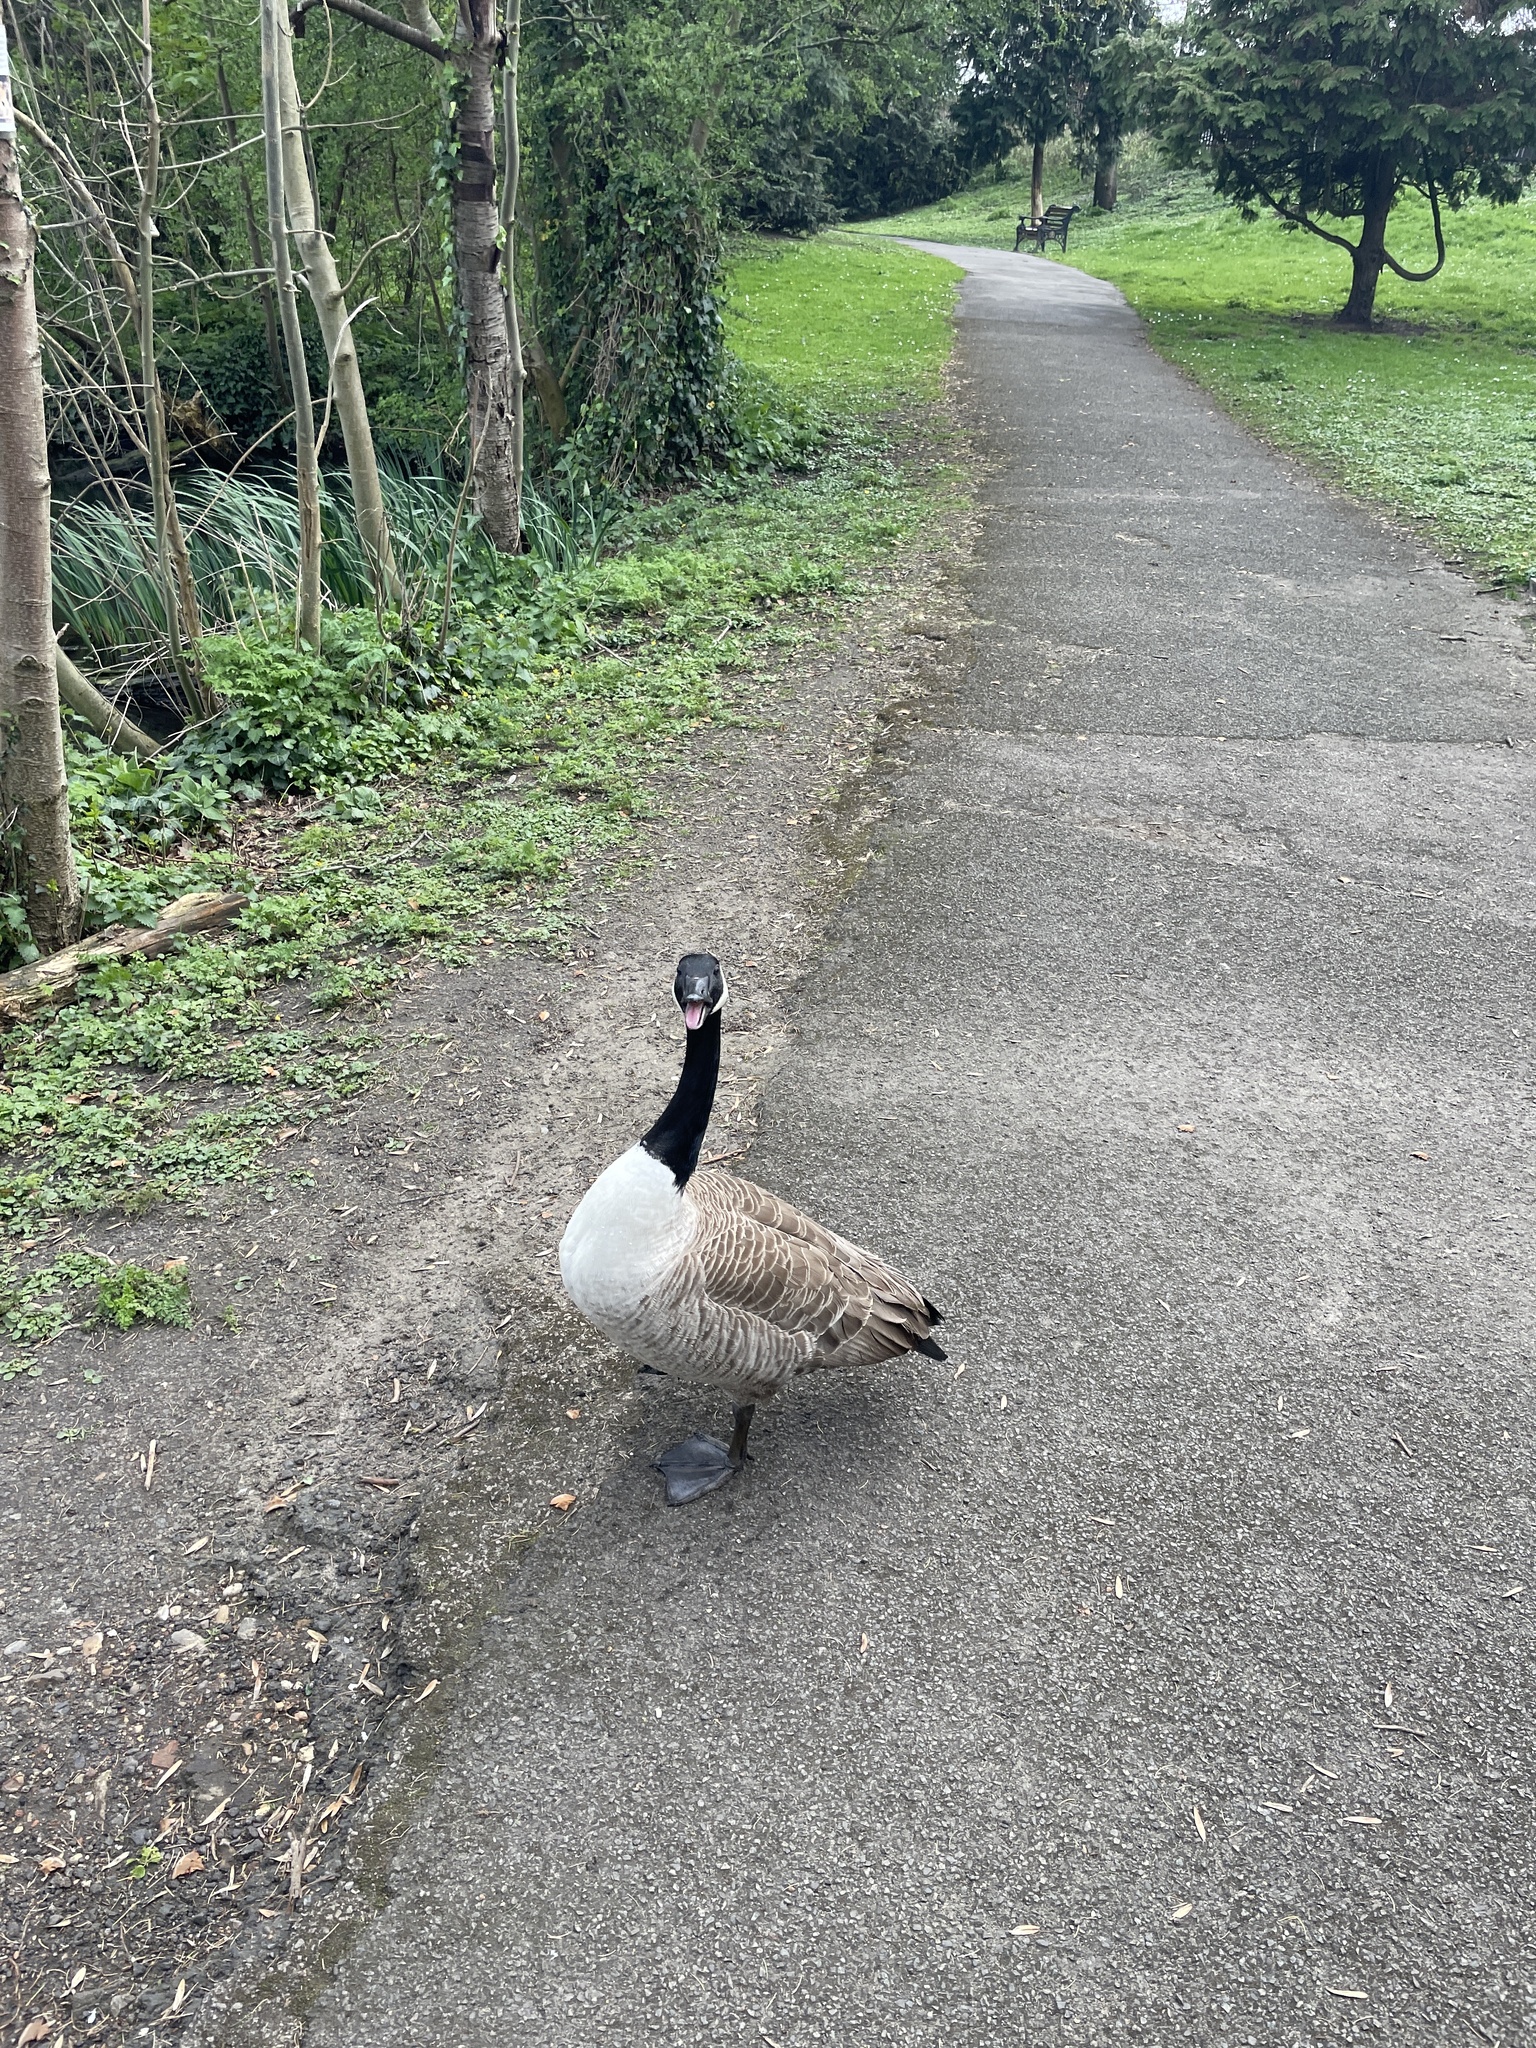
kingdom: Animalia
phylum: Chordata
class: Aves
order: Anseriformes
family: Anatidae
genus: Branta
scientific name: Branta canadensis
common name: Canada goose
